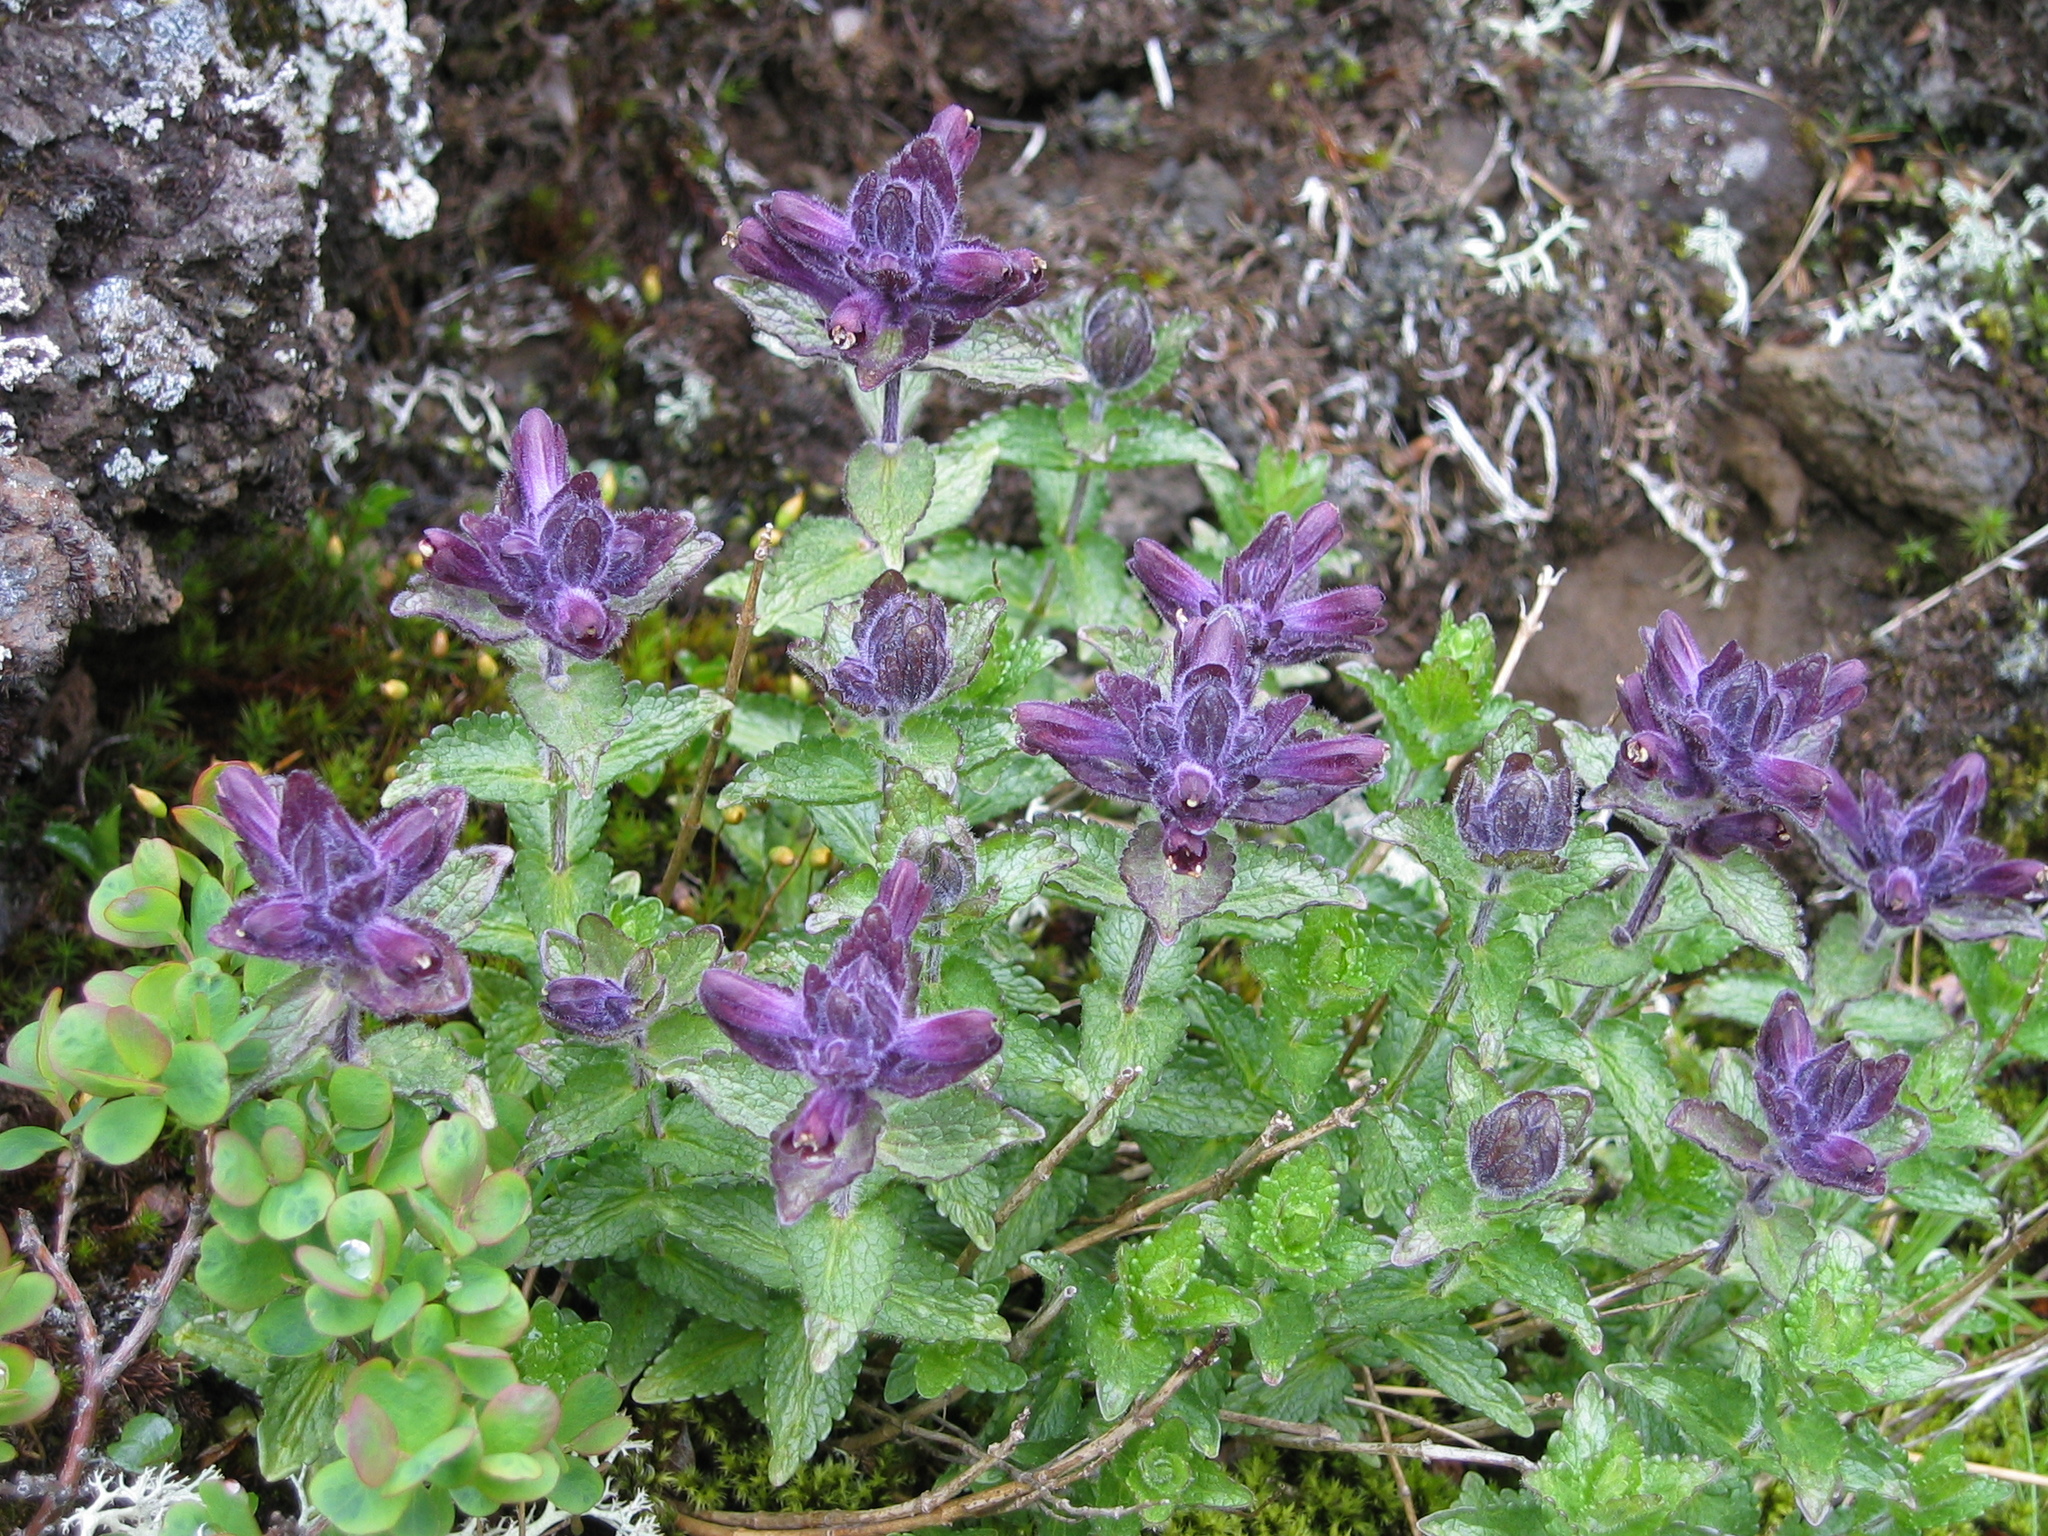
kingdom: Plantae
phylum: Tracheophyta
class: Magnoliopsida
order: Lamiales
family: Orobanchaceae
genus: Bartsia
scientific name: Bartsia alpina
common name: Alpine bartsia
